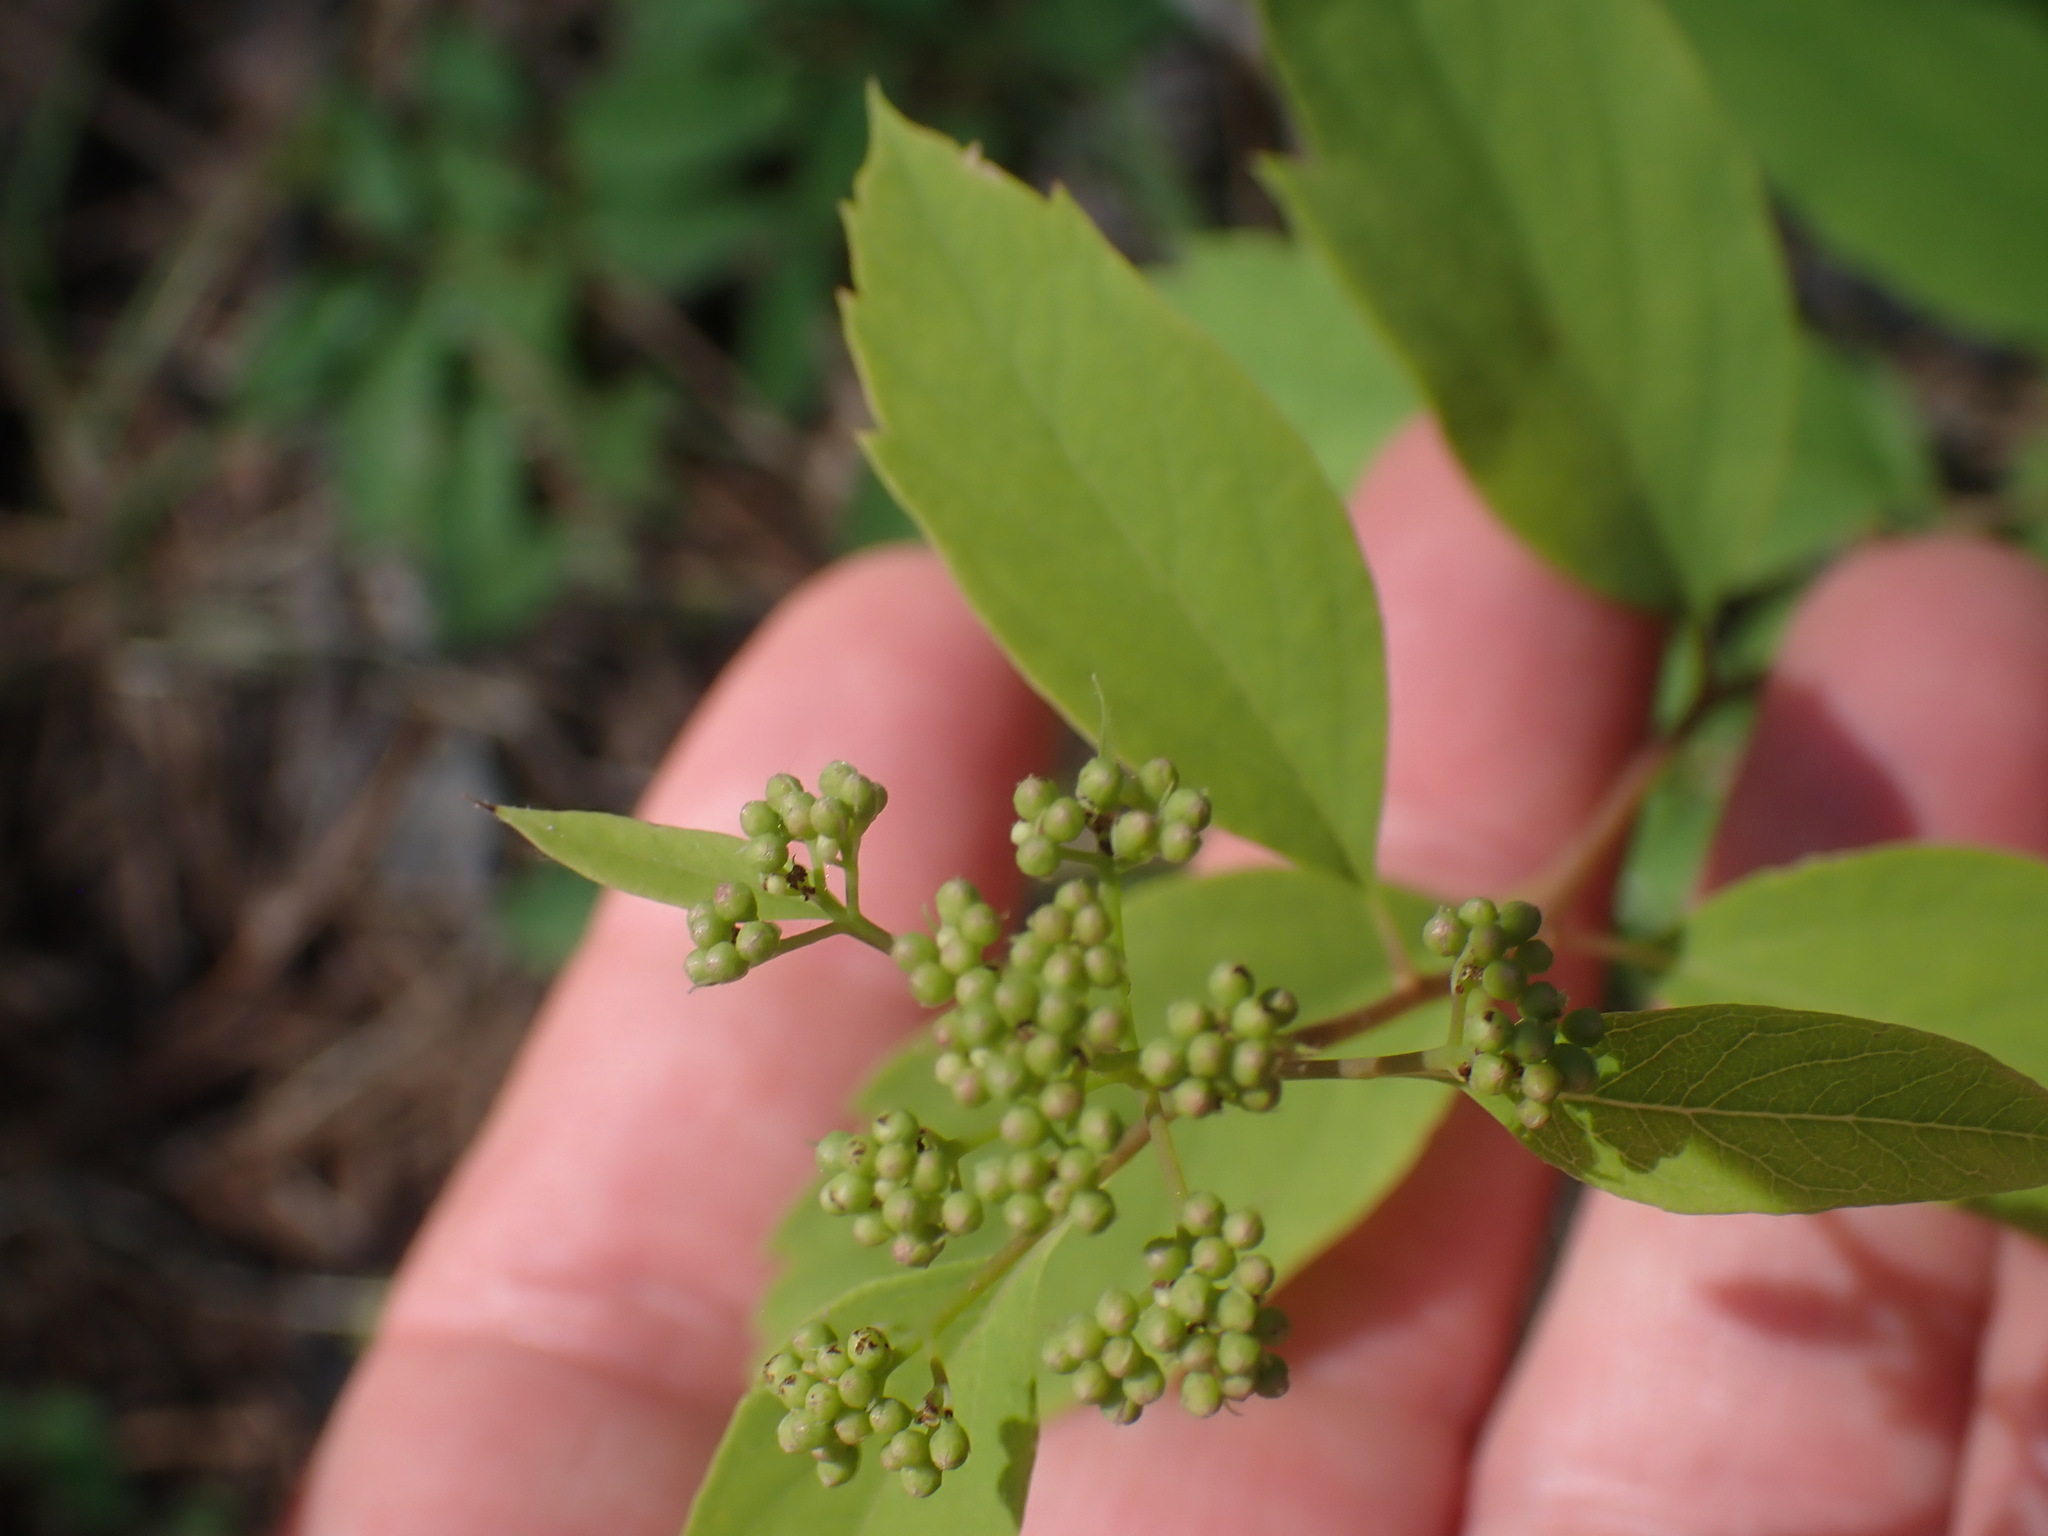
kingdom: Plantae
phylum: Tracheophyta
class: Magnoliopsida
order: Rosales
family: Rosaceae
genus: Spiraea
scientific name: Spiraea lucida
